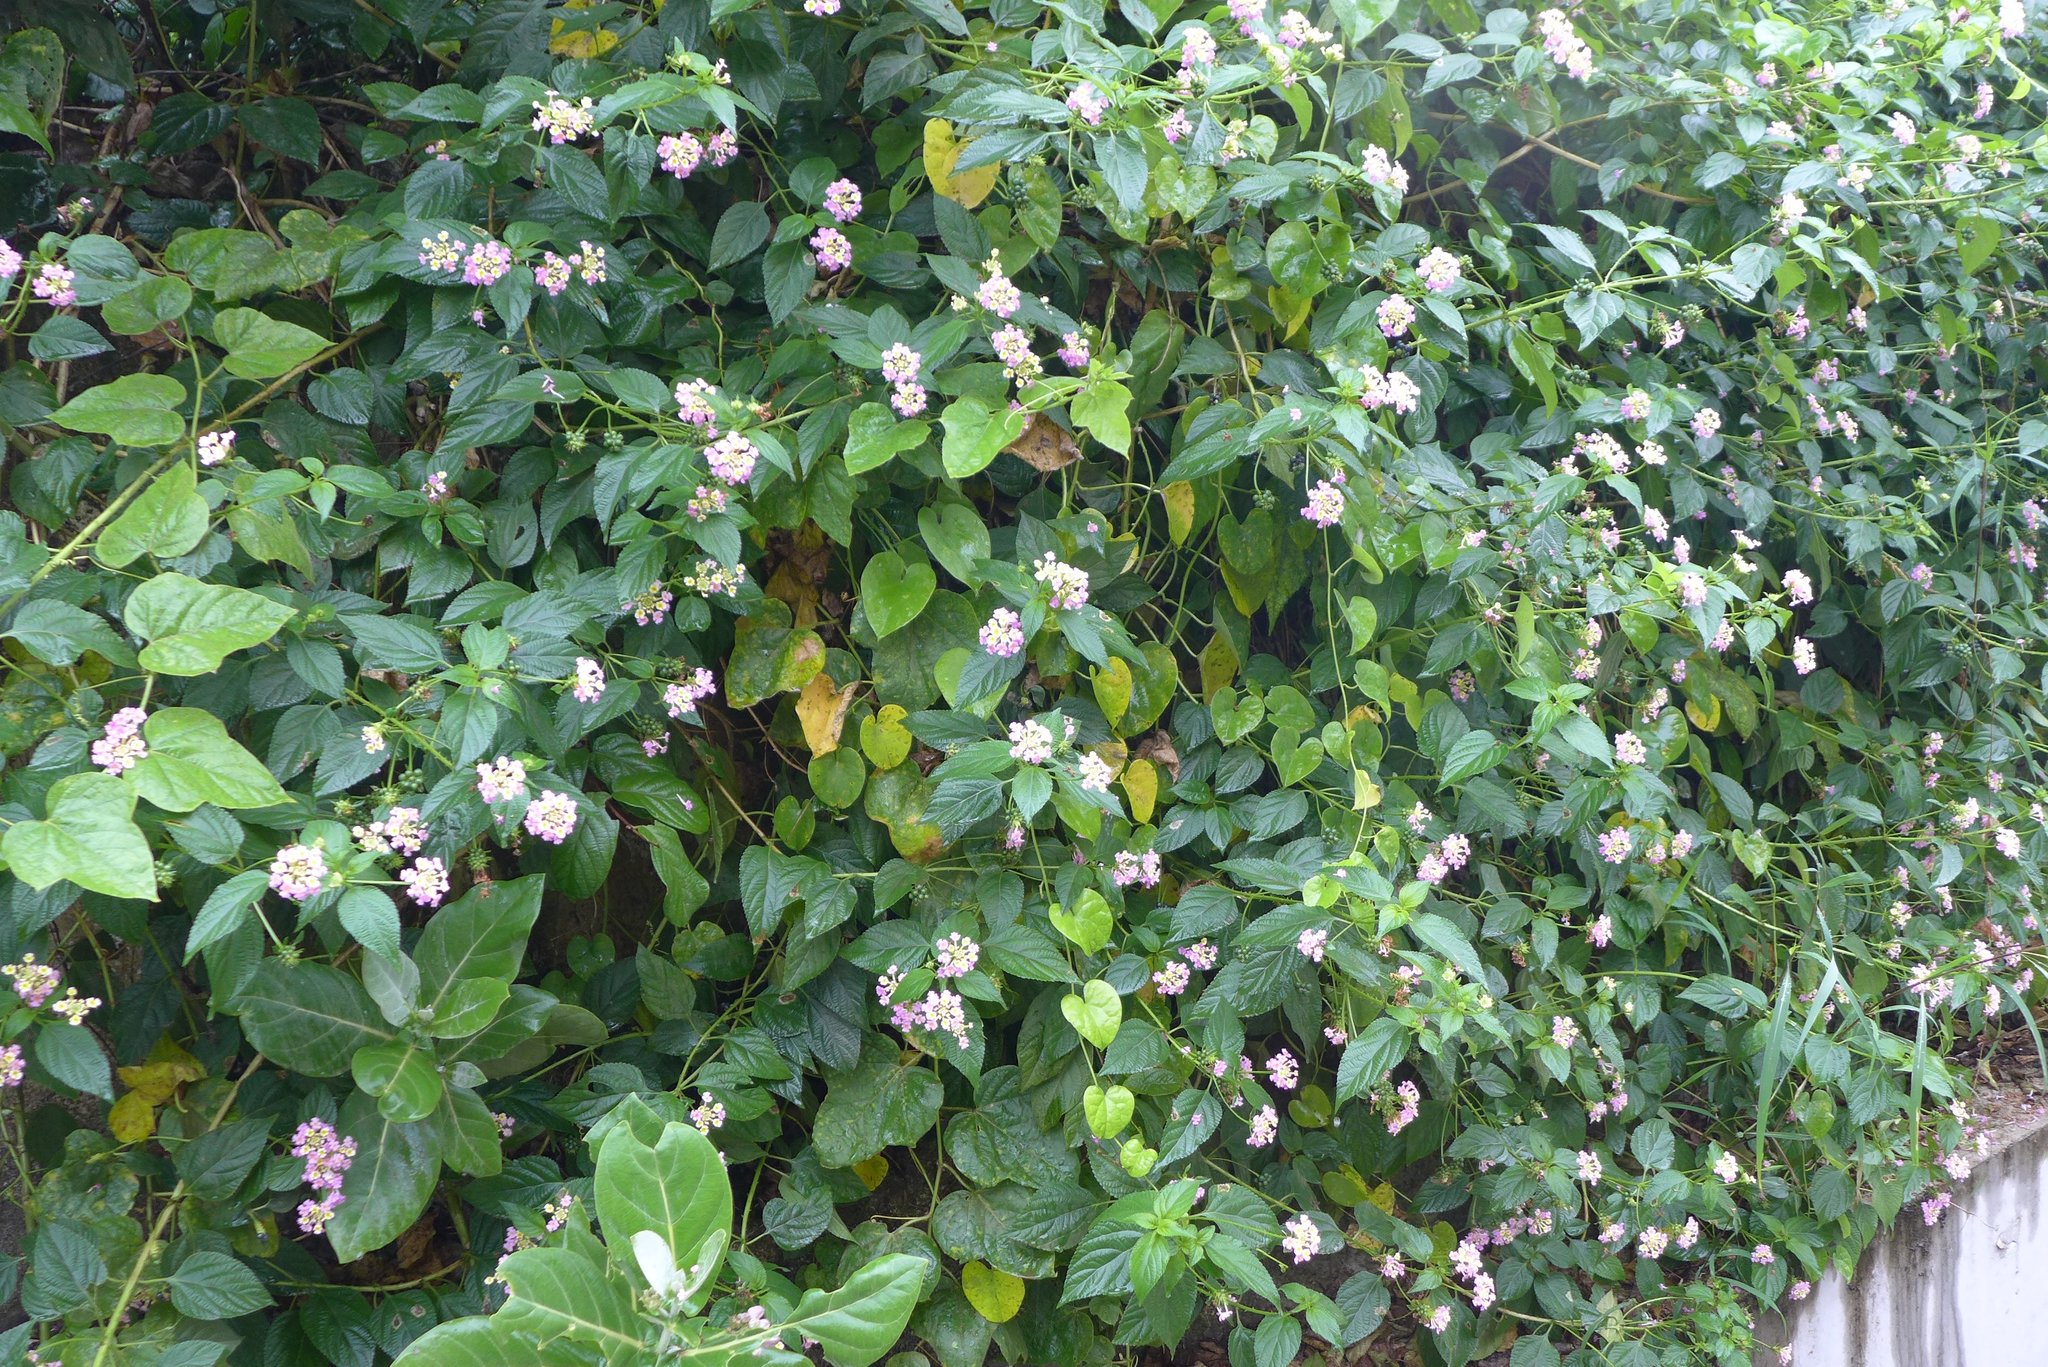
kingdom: Plantae
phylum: Tracheophyta
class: Magnoliopsida
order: Lamiales
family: Verbenaceae
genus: Lantana
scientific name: Lantana camara
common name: Lantana
